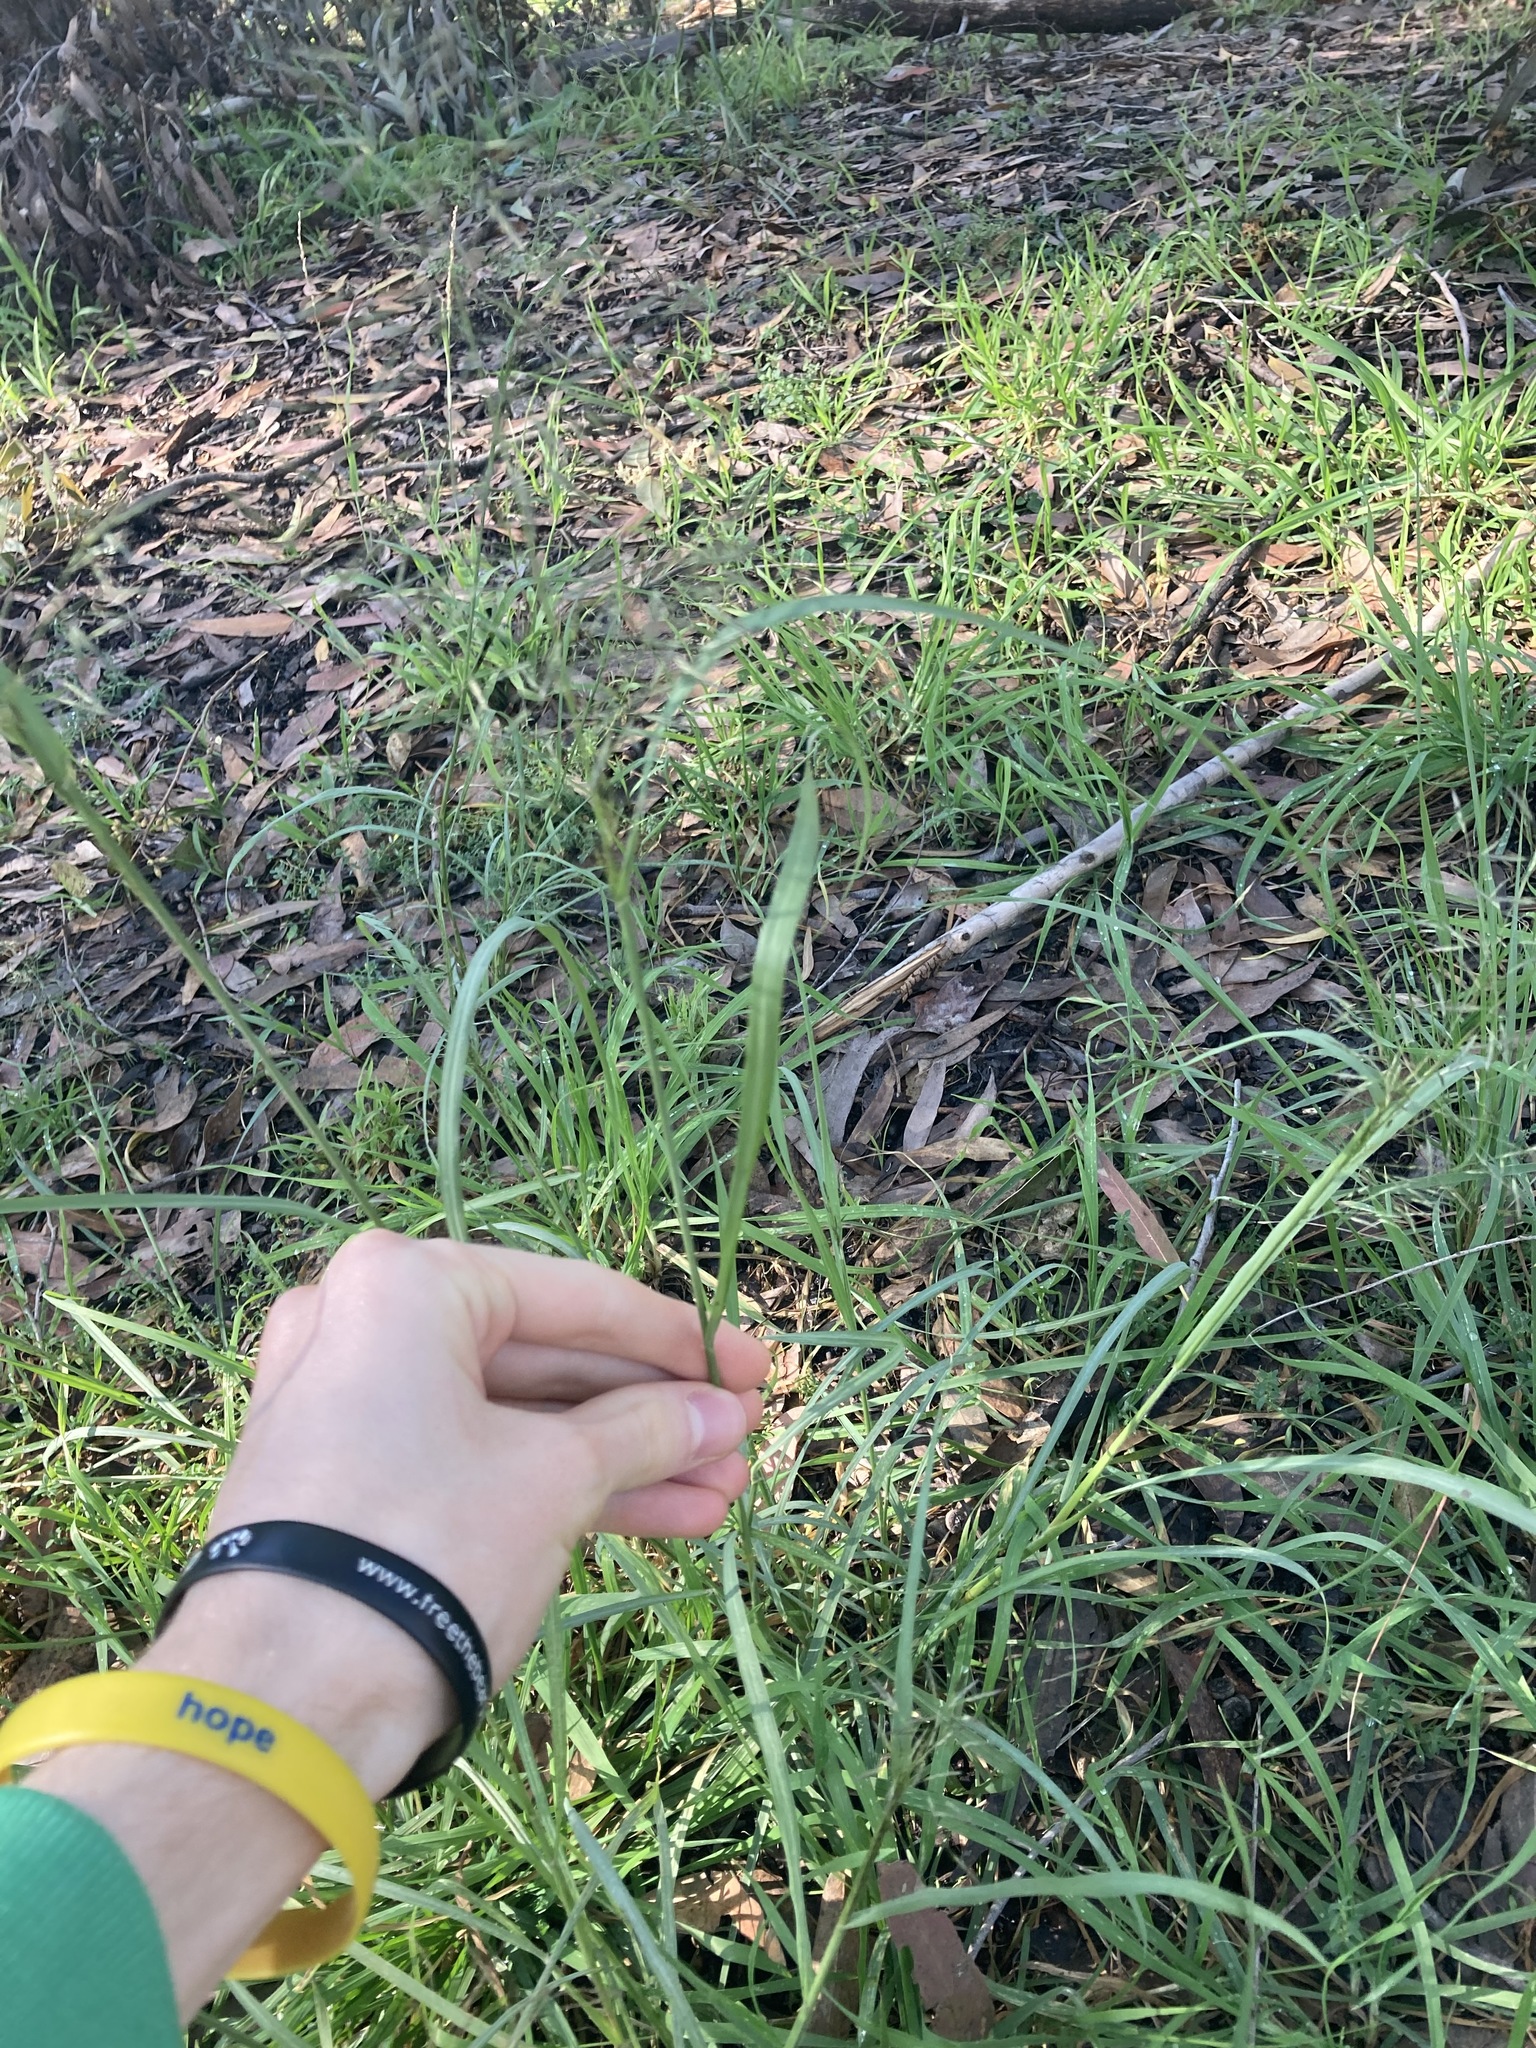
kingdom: Plantae
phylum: Tracheophyta
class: Liliopsida
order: Poales
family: Poaceae
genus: Eragrostis
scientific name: Eragrostis tenuifolia
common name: Elastic grass
